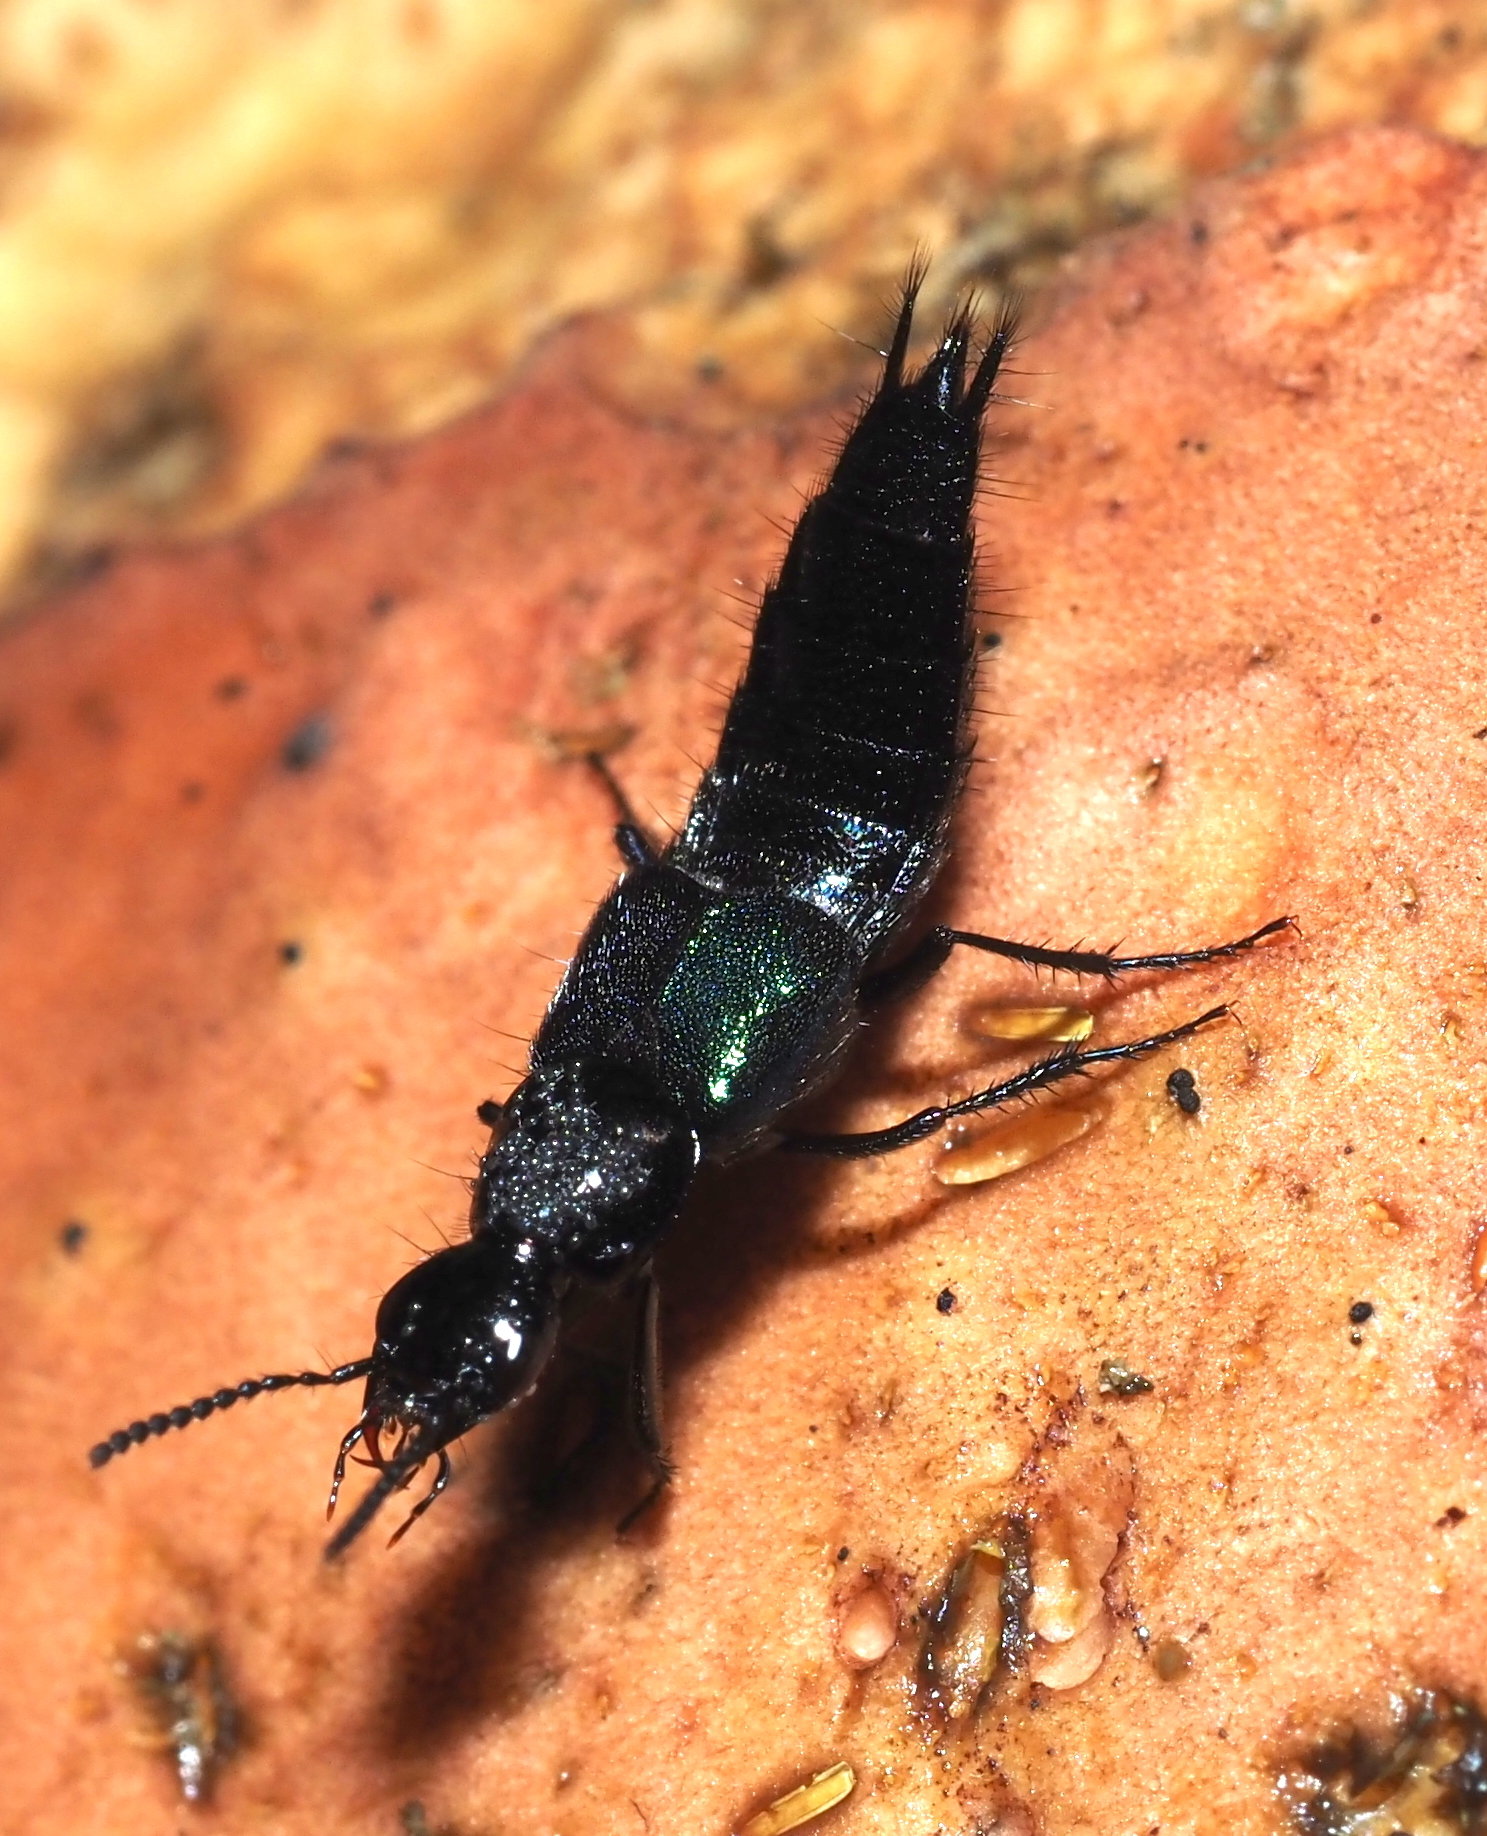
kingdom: Animalia
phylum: Arthropoda
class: Insecta
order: Coleoptera
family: Staphylinidae
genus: Philonthus
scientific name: Philonthus caeruleipennis
